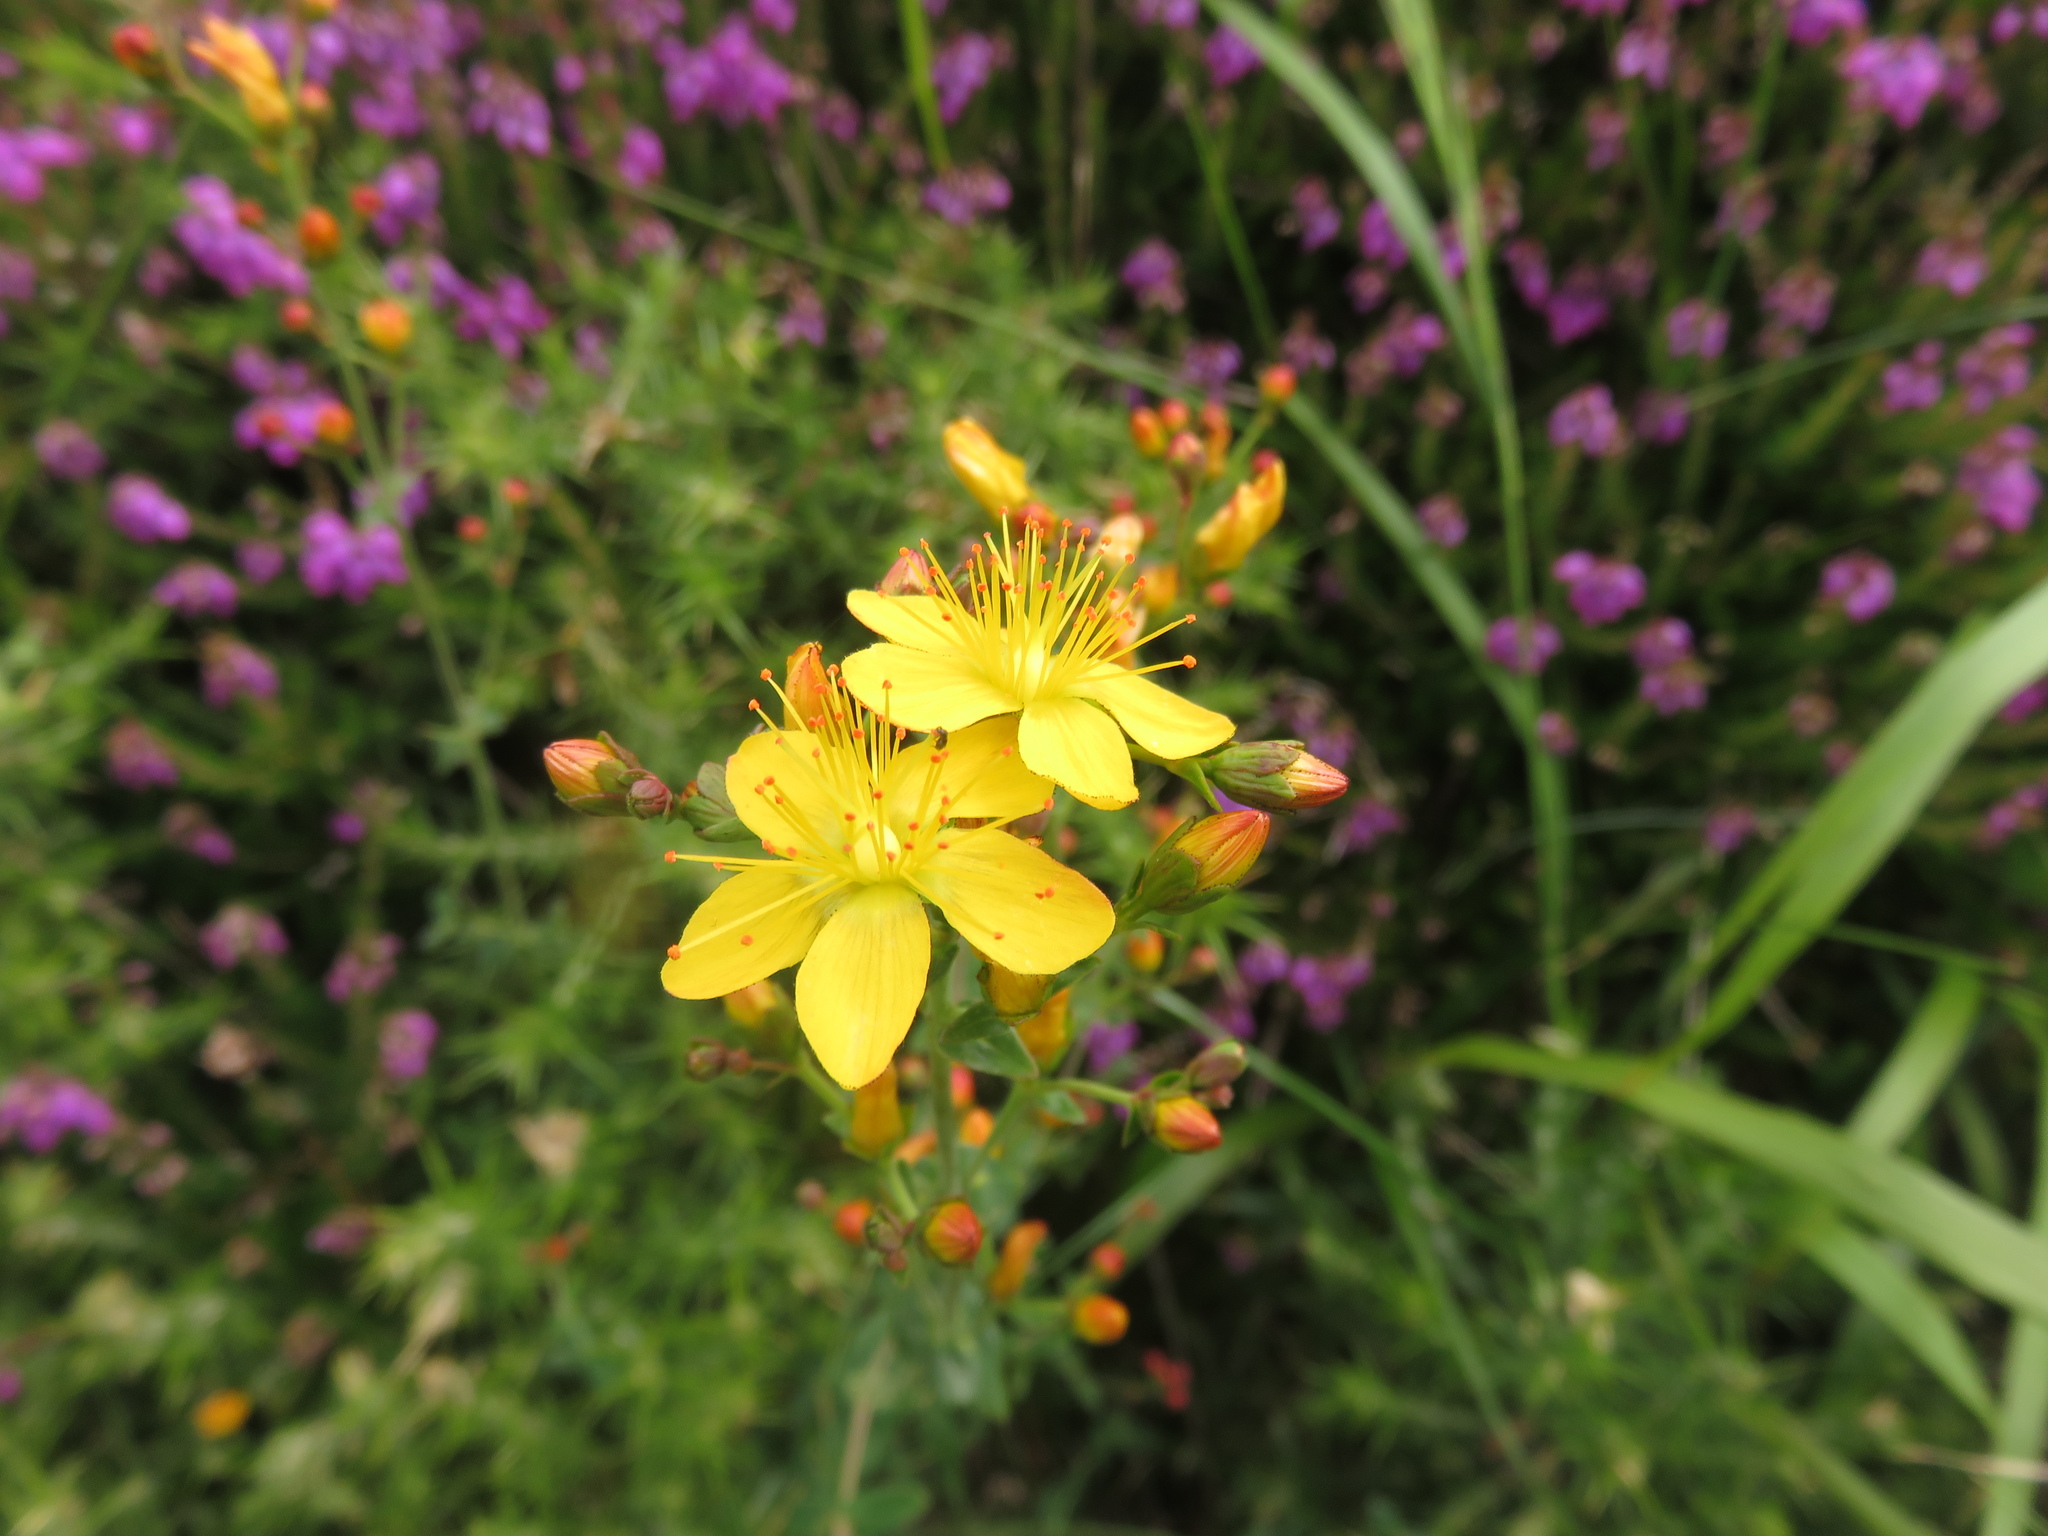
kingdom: Plantae
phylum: Tracheophyta
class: Magnoliopsida
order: Malpighiales
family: Hypericaceae
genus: Hypericum
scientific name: Hypericum pulchrum
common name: Slender st. john's-wort
